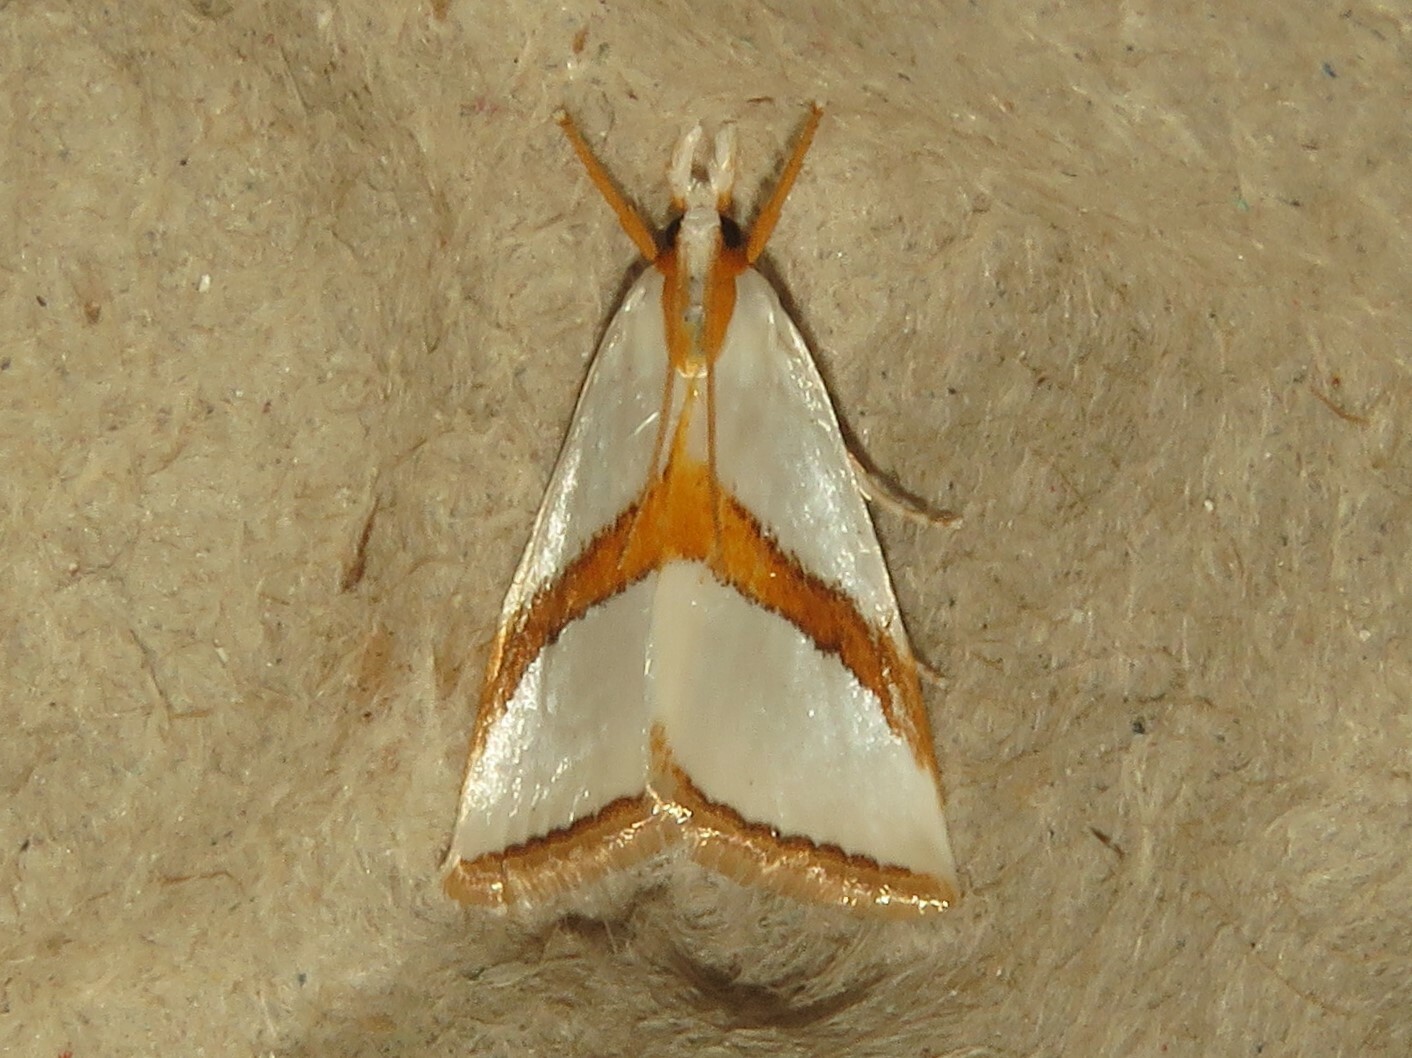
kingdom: Animalia
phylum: Arthropoda
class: Insecta
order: Lepidoptera
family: Crambidae
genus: Vaxi
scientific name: Vaxi critica
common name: Straight-lined vaxi moth
